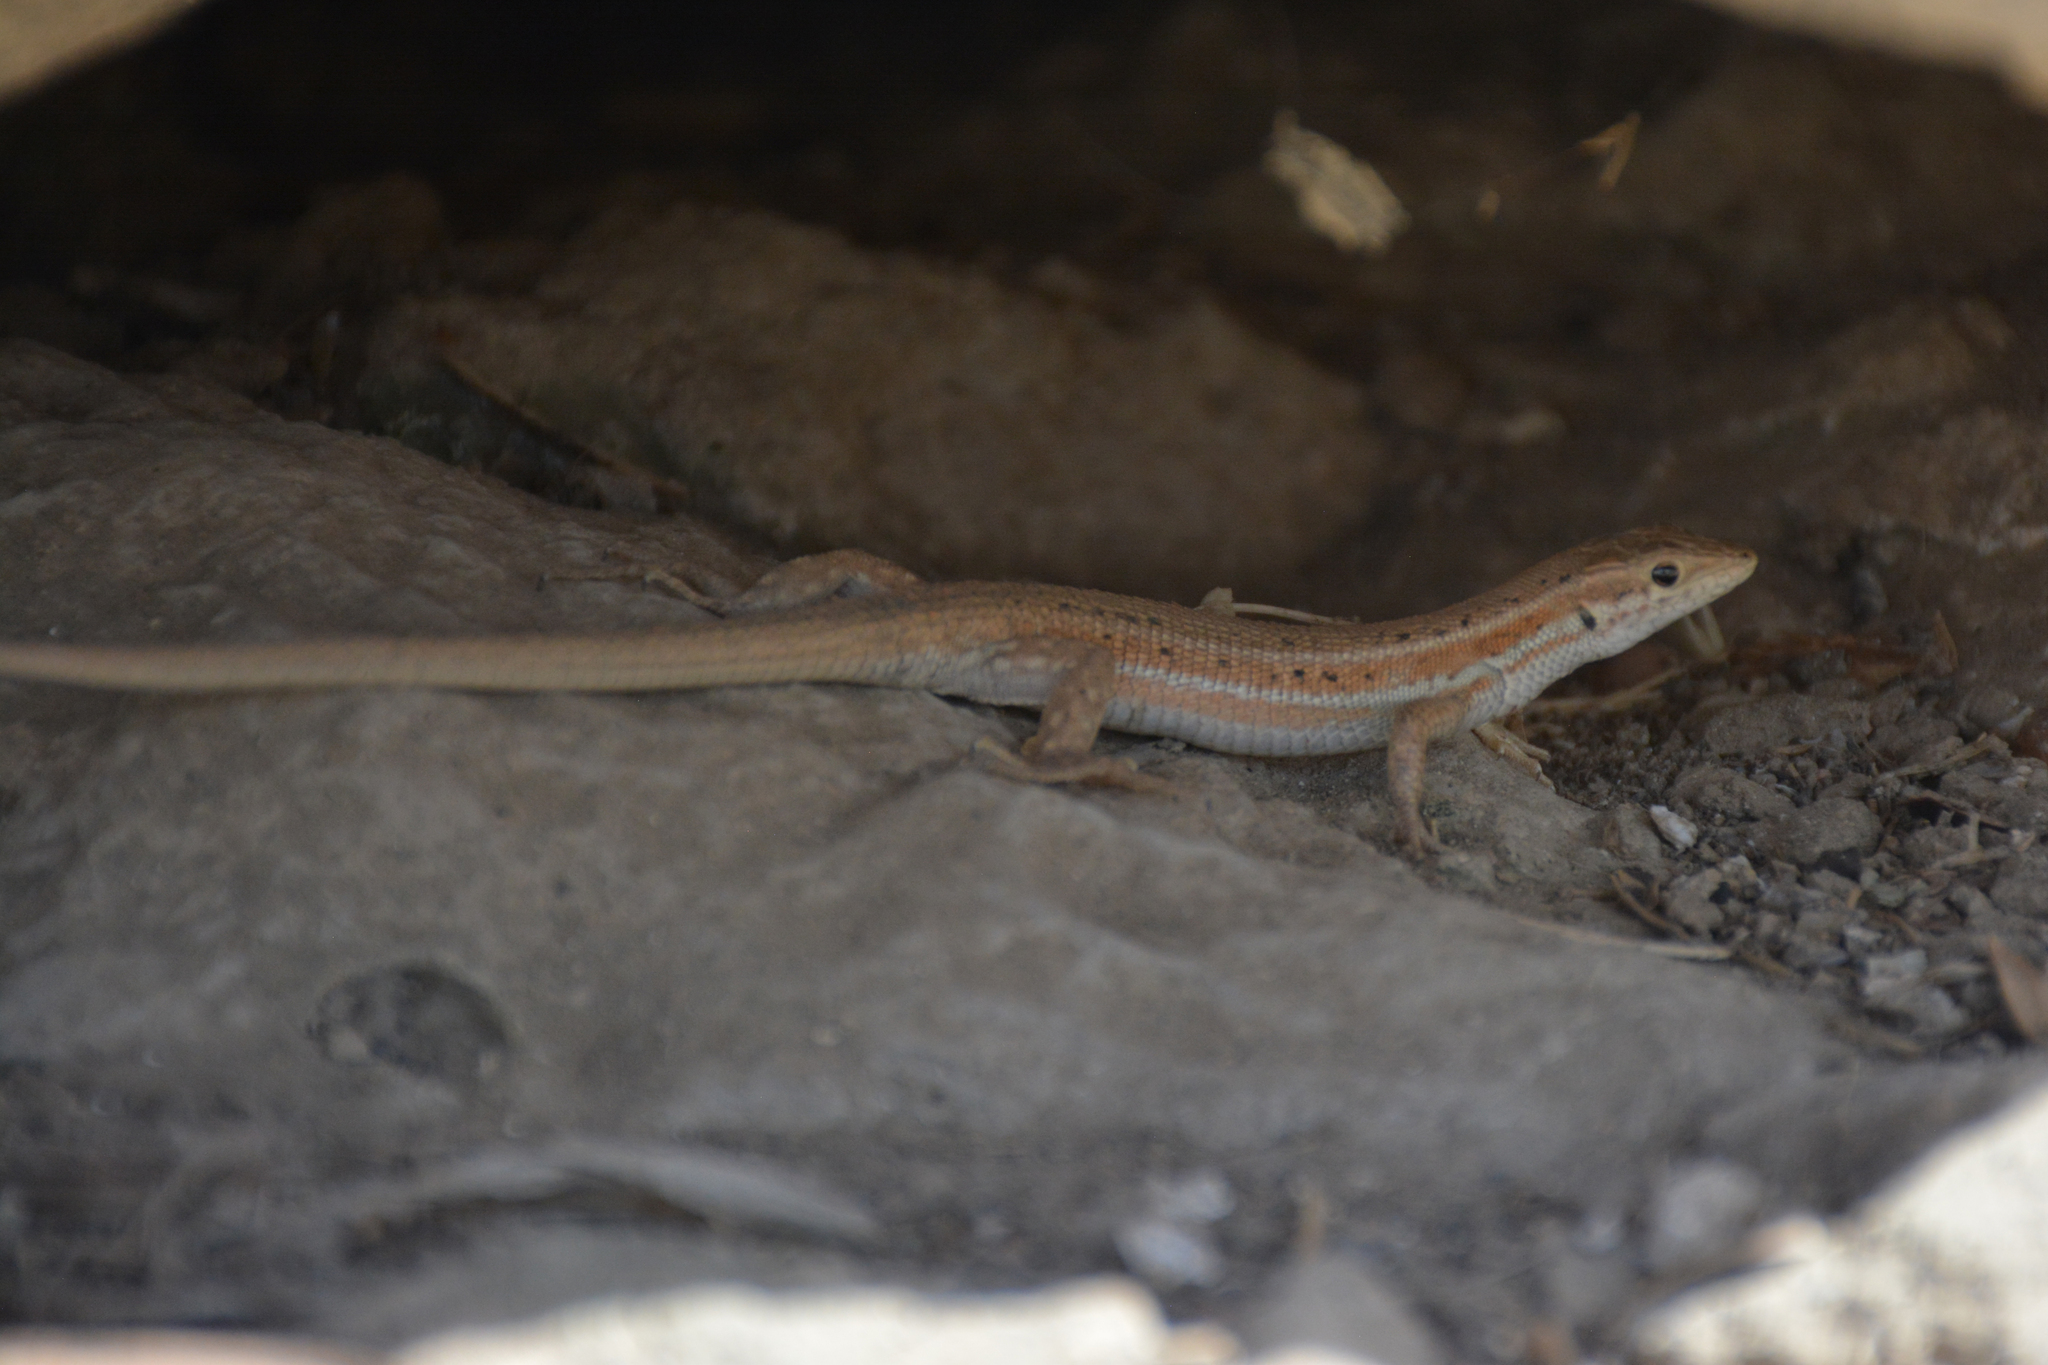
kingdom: Animalia
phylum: Chordata
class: Squamata
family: Lacertidae
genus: Ophisops
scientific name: Ophisops elegans
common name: Snake-eyed lizard
